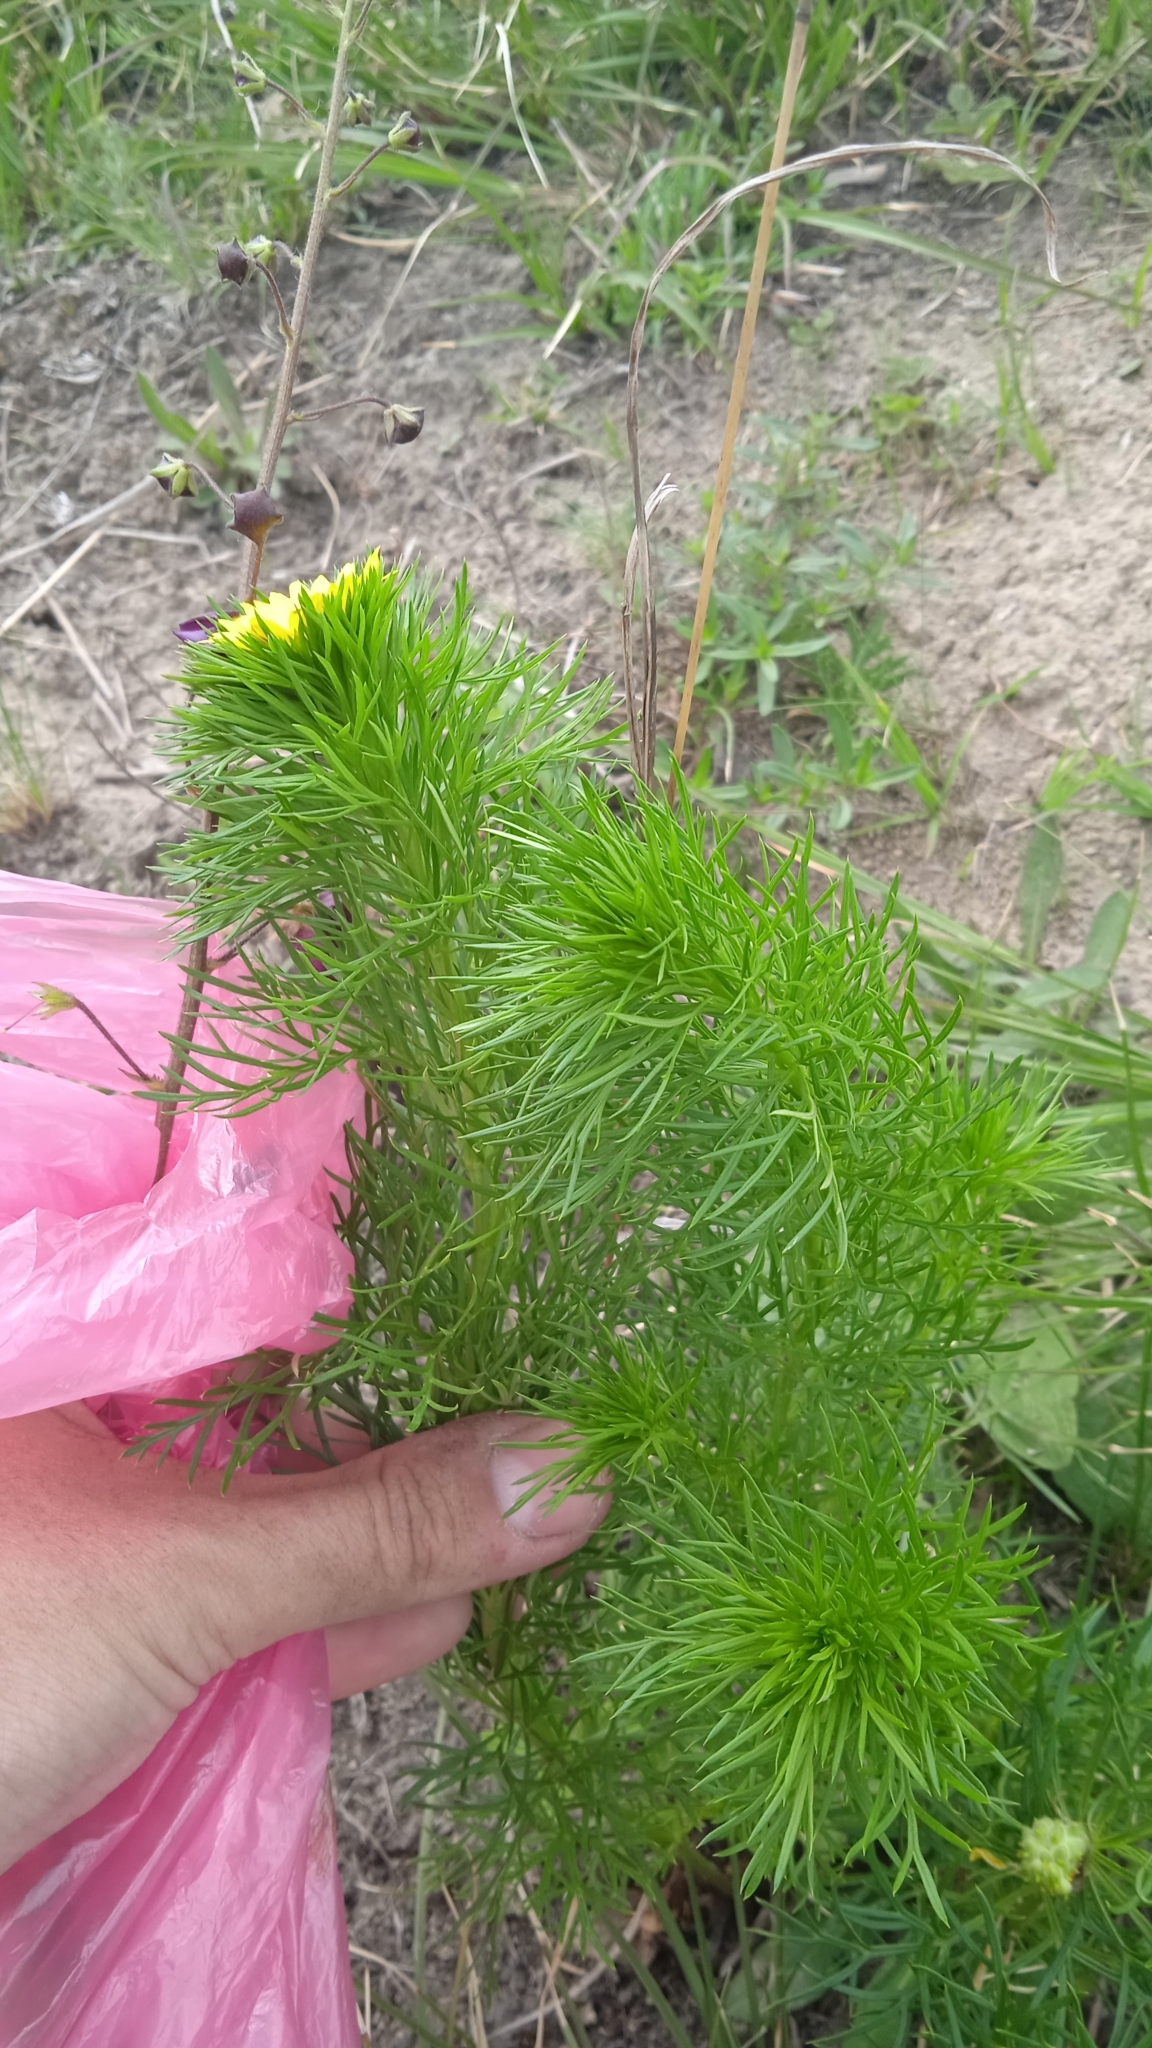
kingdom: Plantae
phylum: Tracheophyta
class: Magnoliopsida
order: Ranunculales
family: Ranunculaceae
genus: Adonis
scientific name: Adonis vernalis
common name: Yellow pheasants-eye
